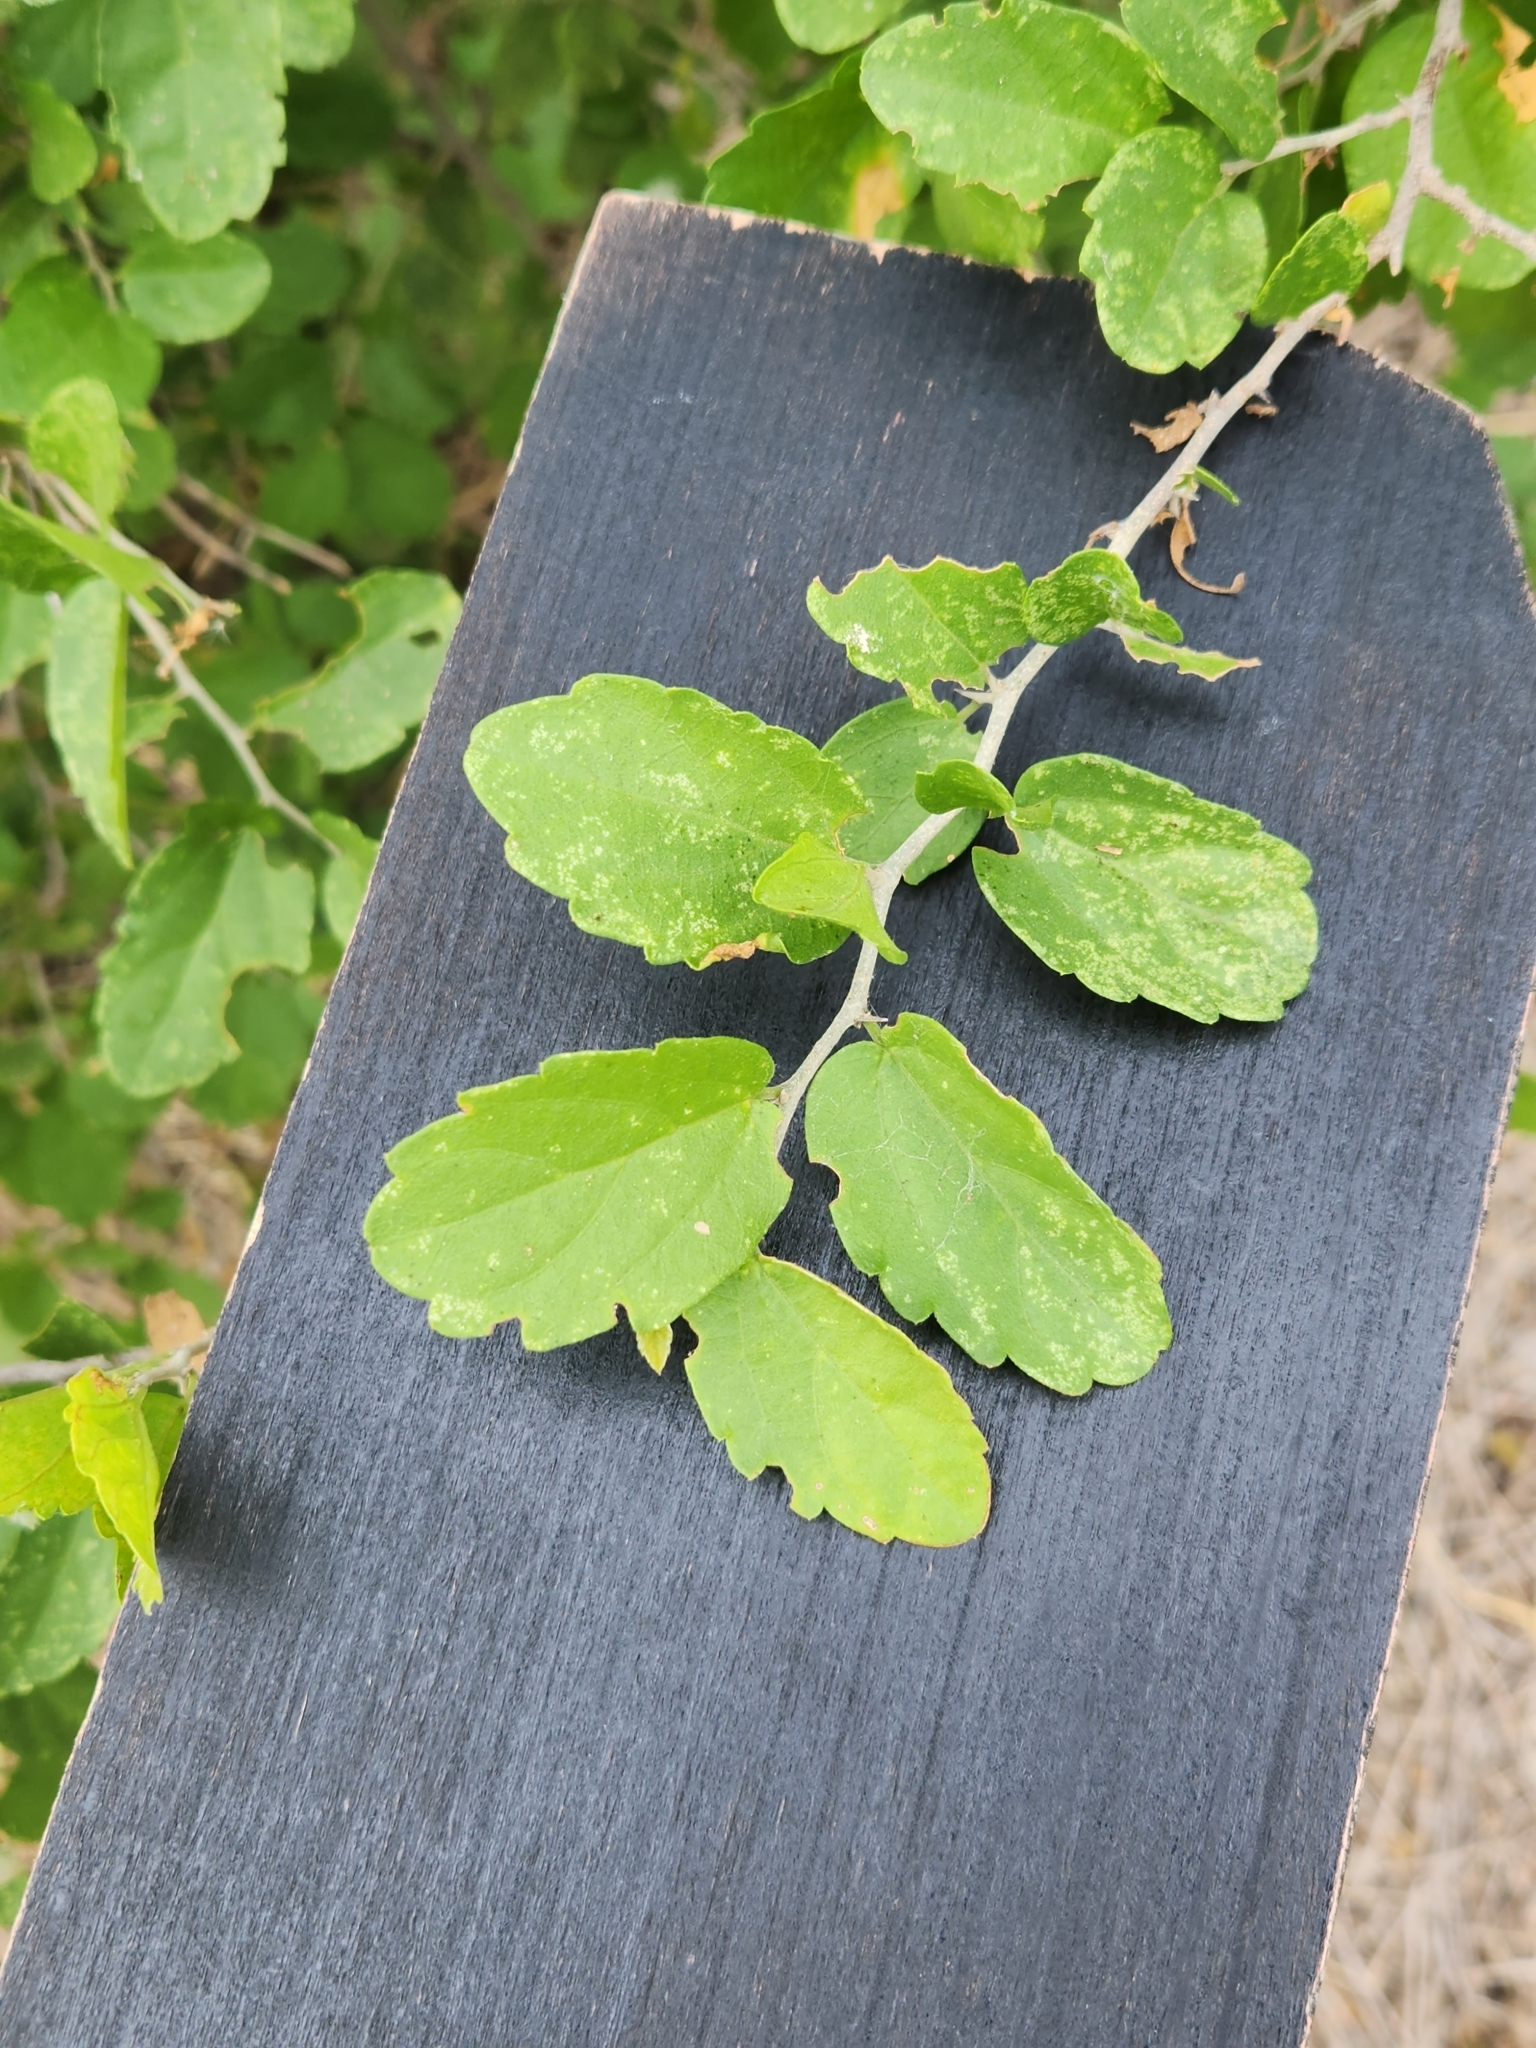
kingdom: Plantae
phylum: Tracheophyta
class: Magnoliopsida
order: Rosales
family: Cannabaceae
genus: Celtis
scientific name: Celtis pallida
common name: Desert hackberry
